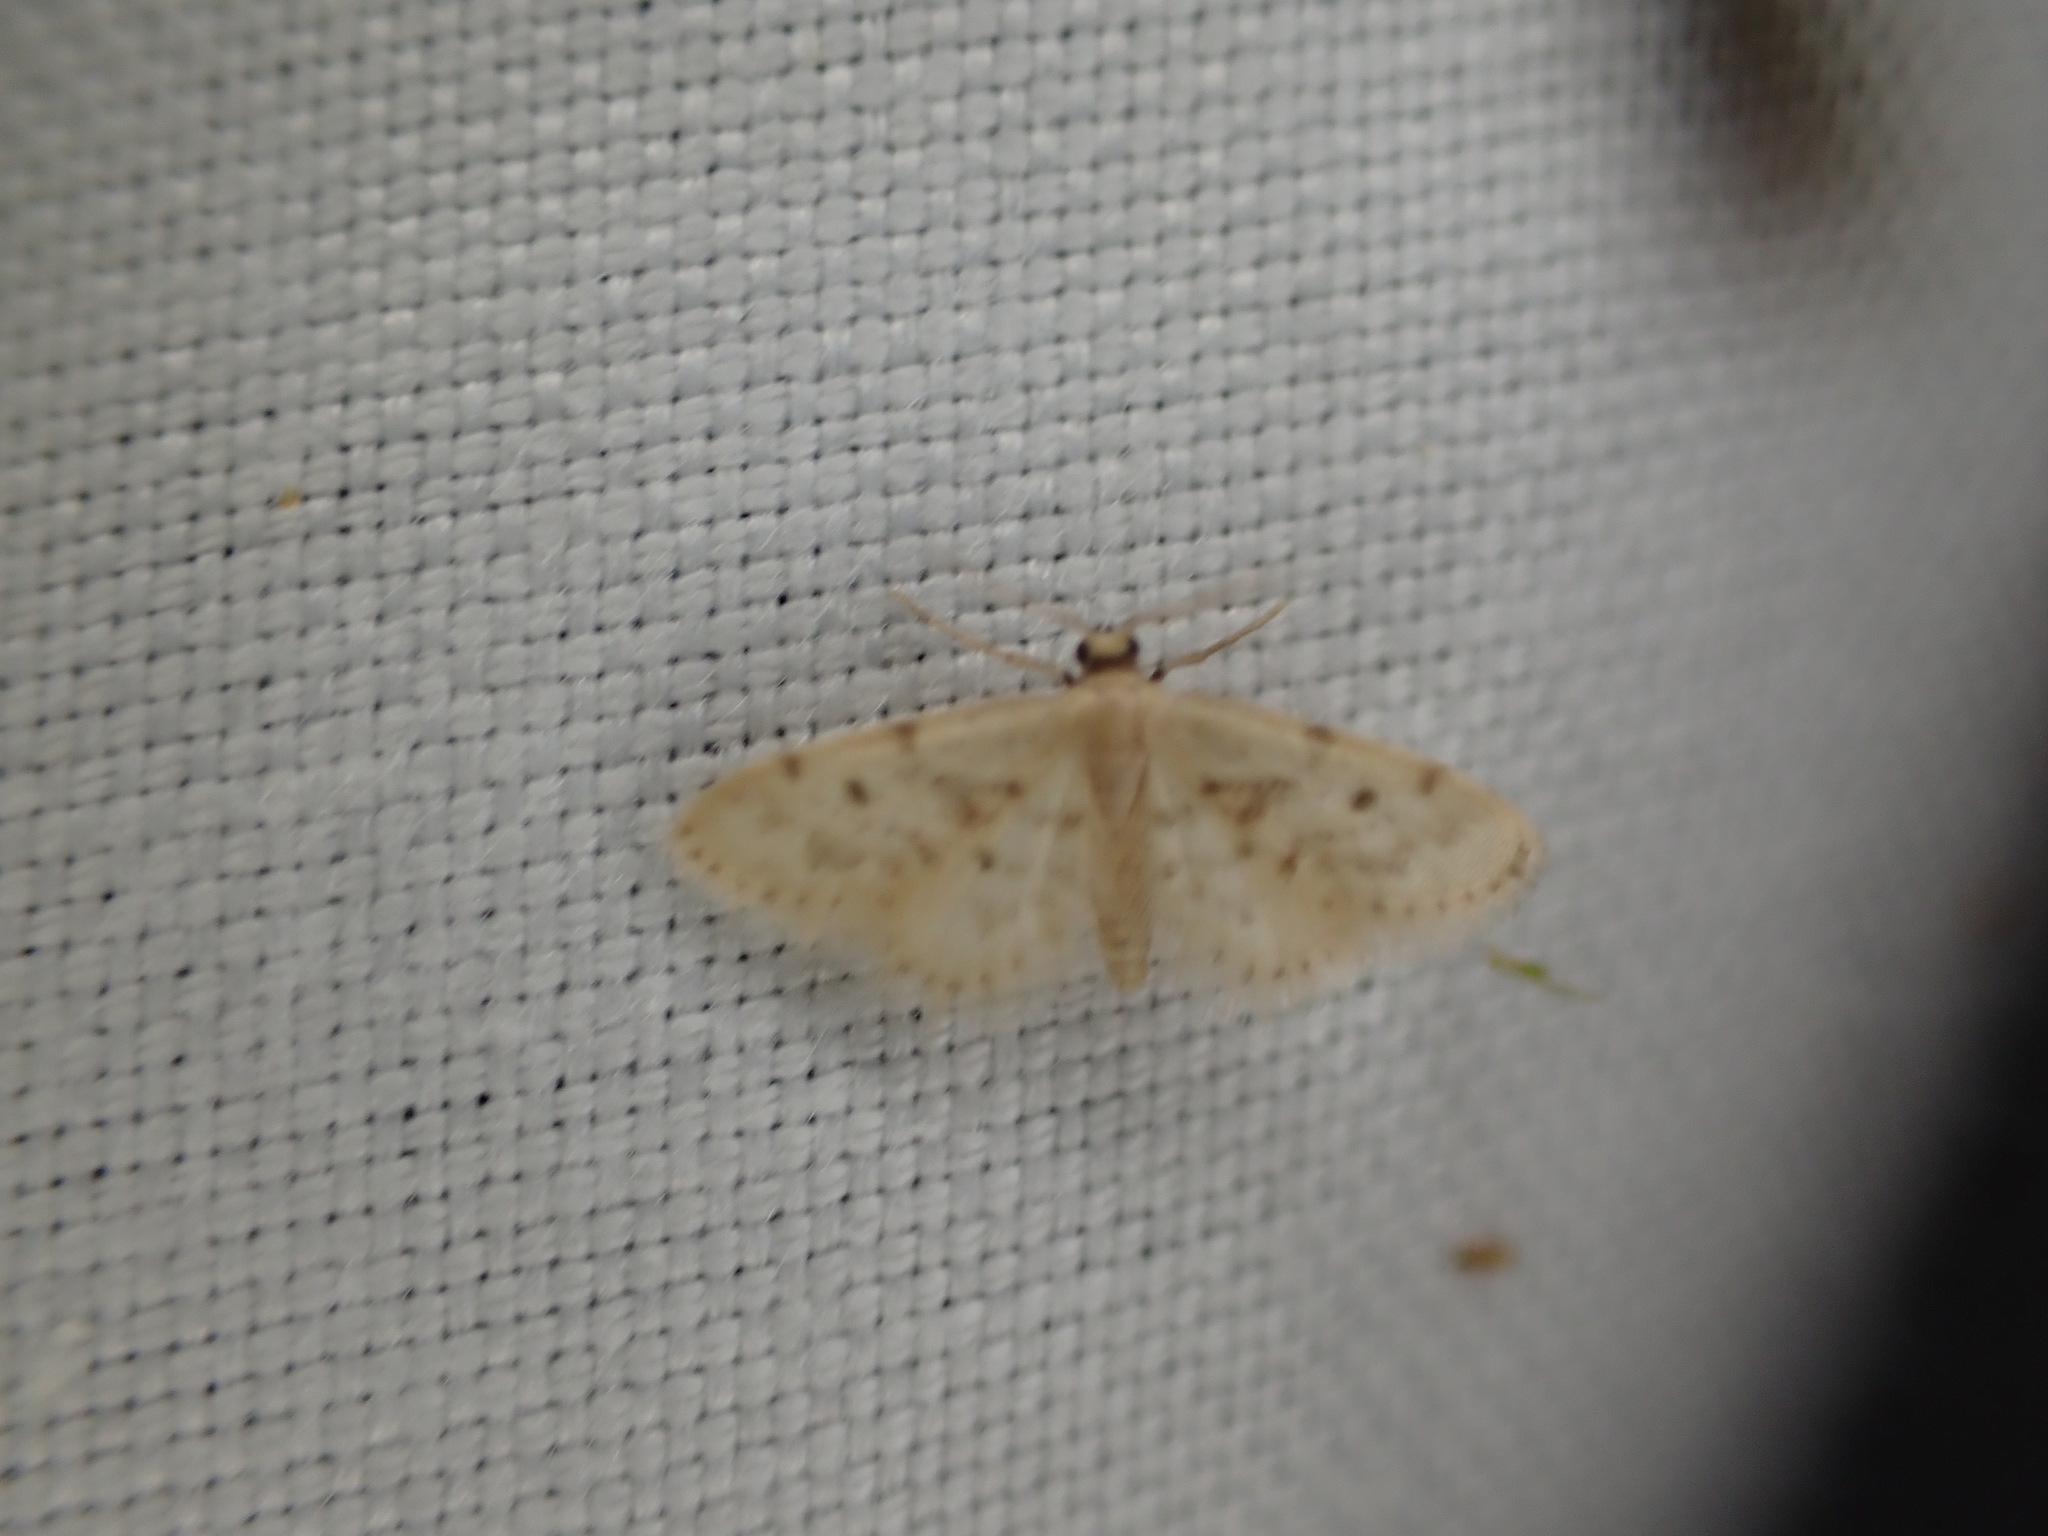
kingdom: Animalia
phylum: Arthropoda
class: Insecta
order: Lepidoptera
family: Geometridae
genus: Idaea
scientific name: Idaea bonifata
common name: Fortunate wave
